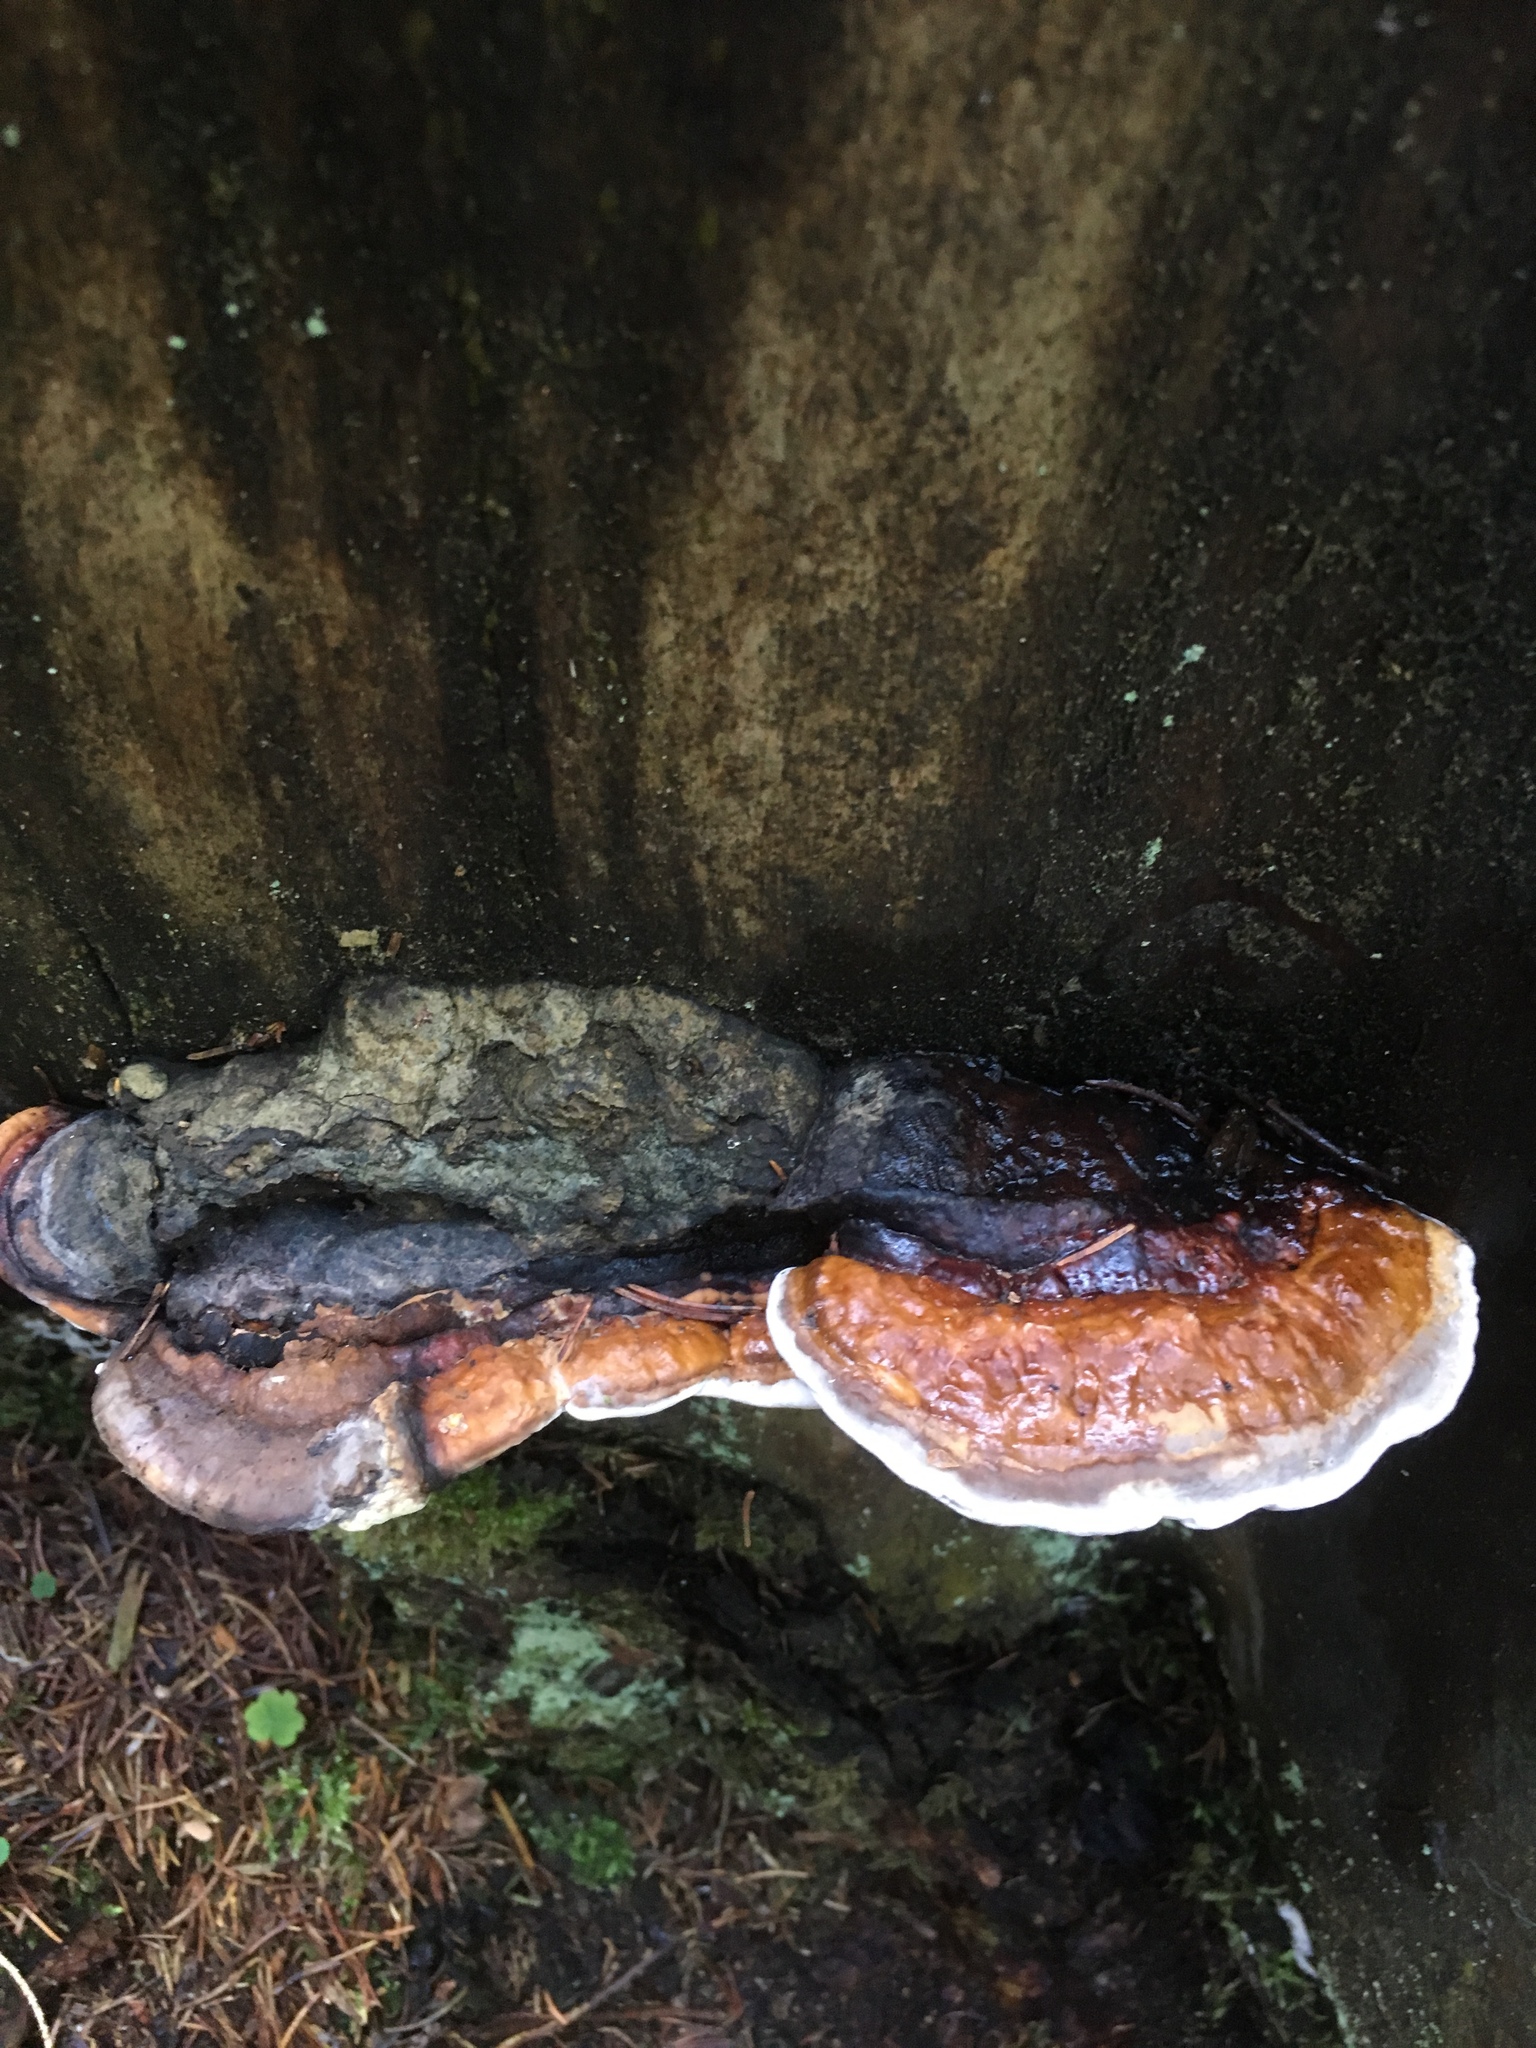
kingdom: Fungi
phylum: Basidiomycota
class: Agaricomycetes
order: Polyporales
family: Fomitopsidaceae
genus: Fomitopsis
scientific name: Fomitopsis pinicola
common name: Red-belted bracket
